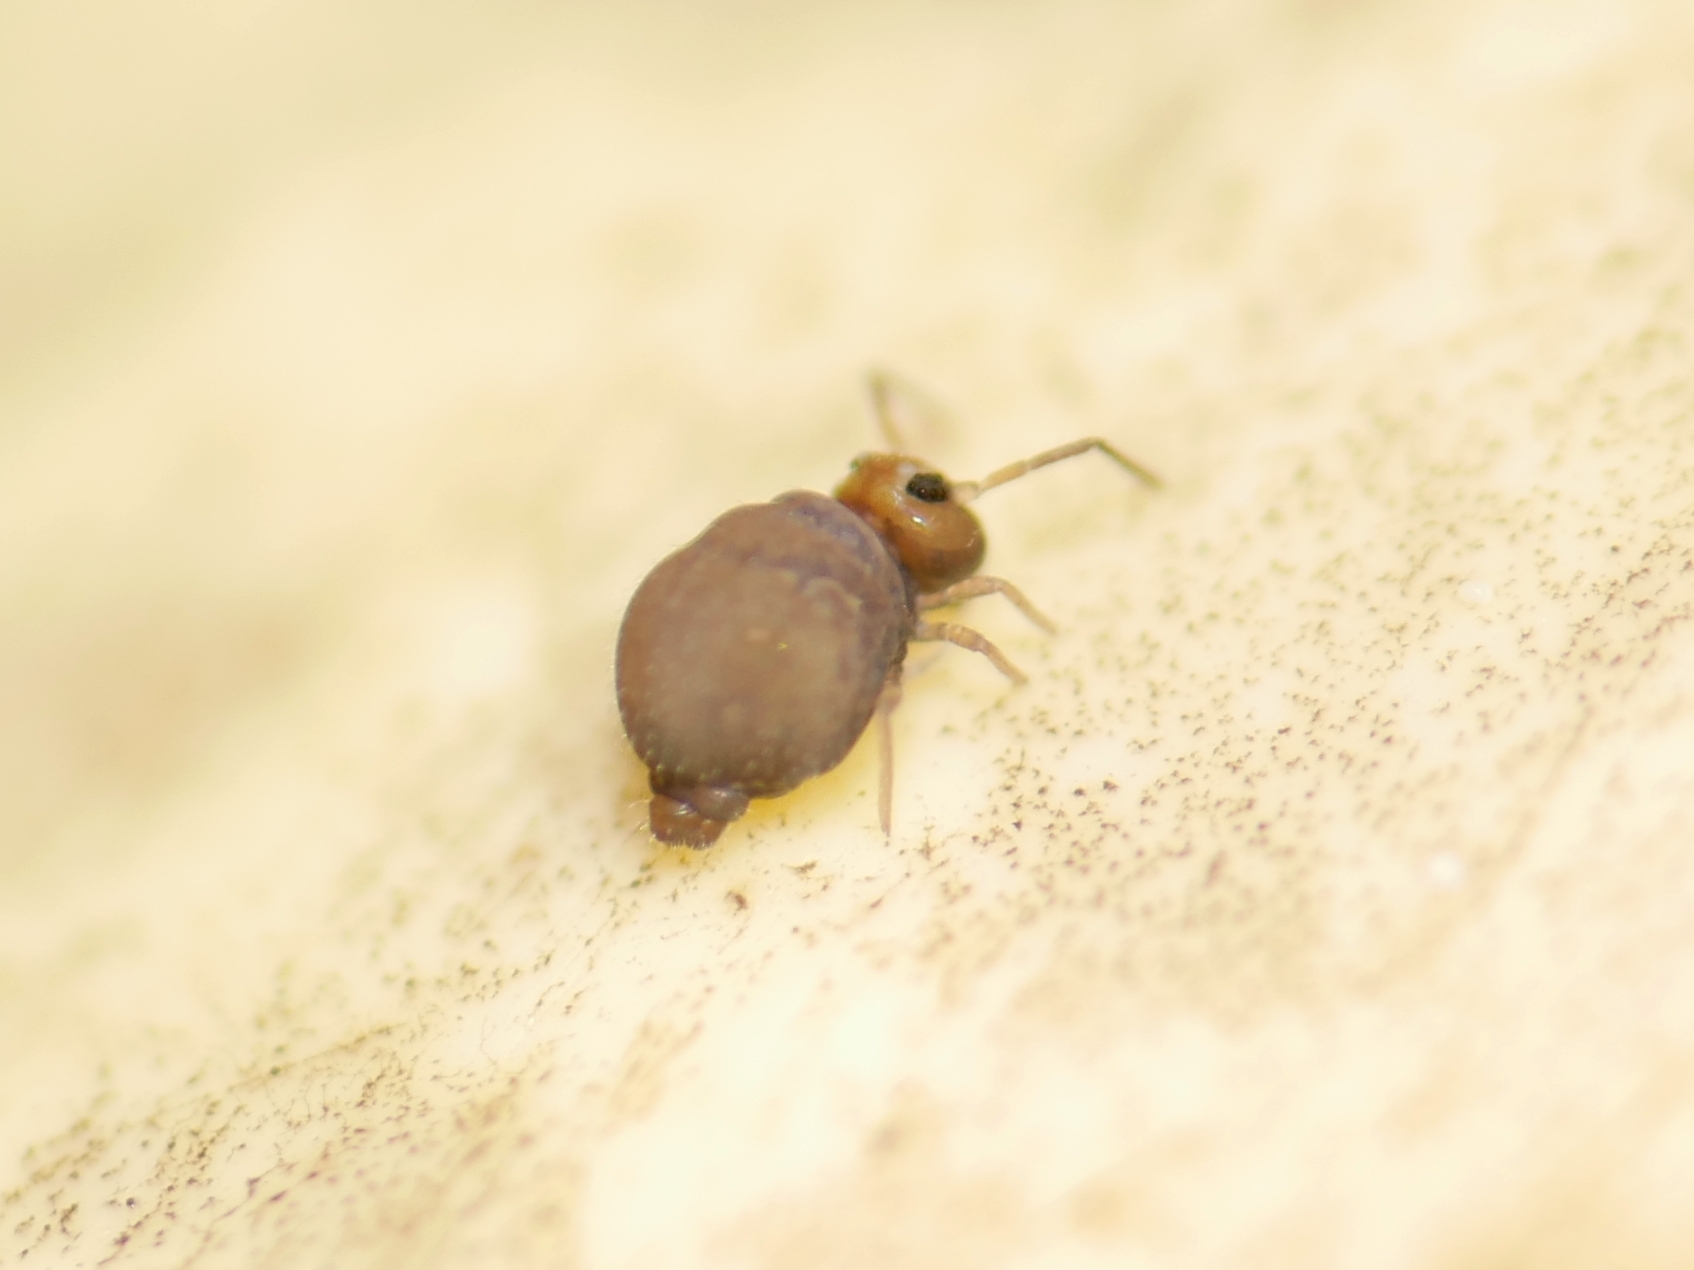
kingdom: Animalia
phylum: Arthropoda
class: Collembola
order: Symphypleona
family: Bourletiellidae
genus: Bourletiella
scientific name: Bourletiella hortensis
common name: Garden springtail
